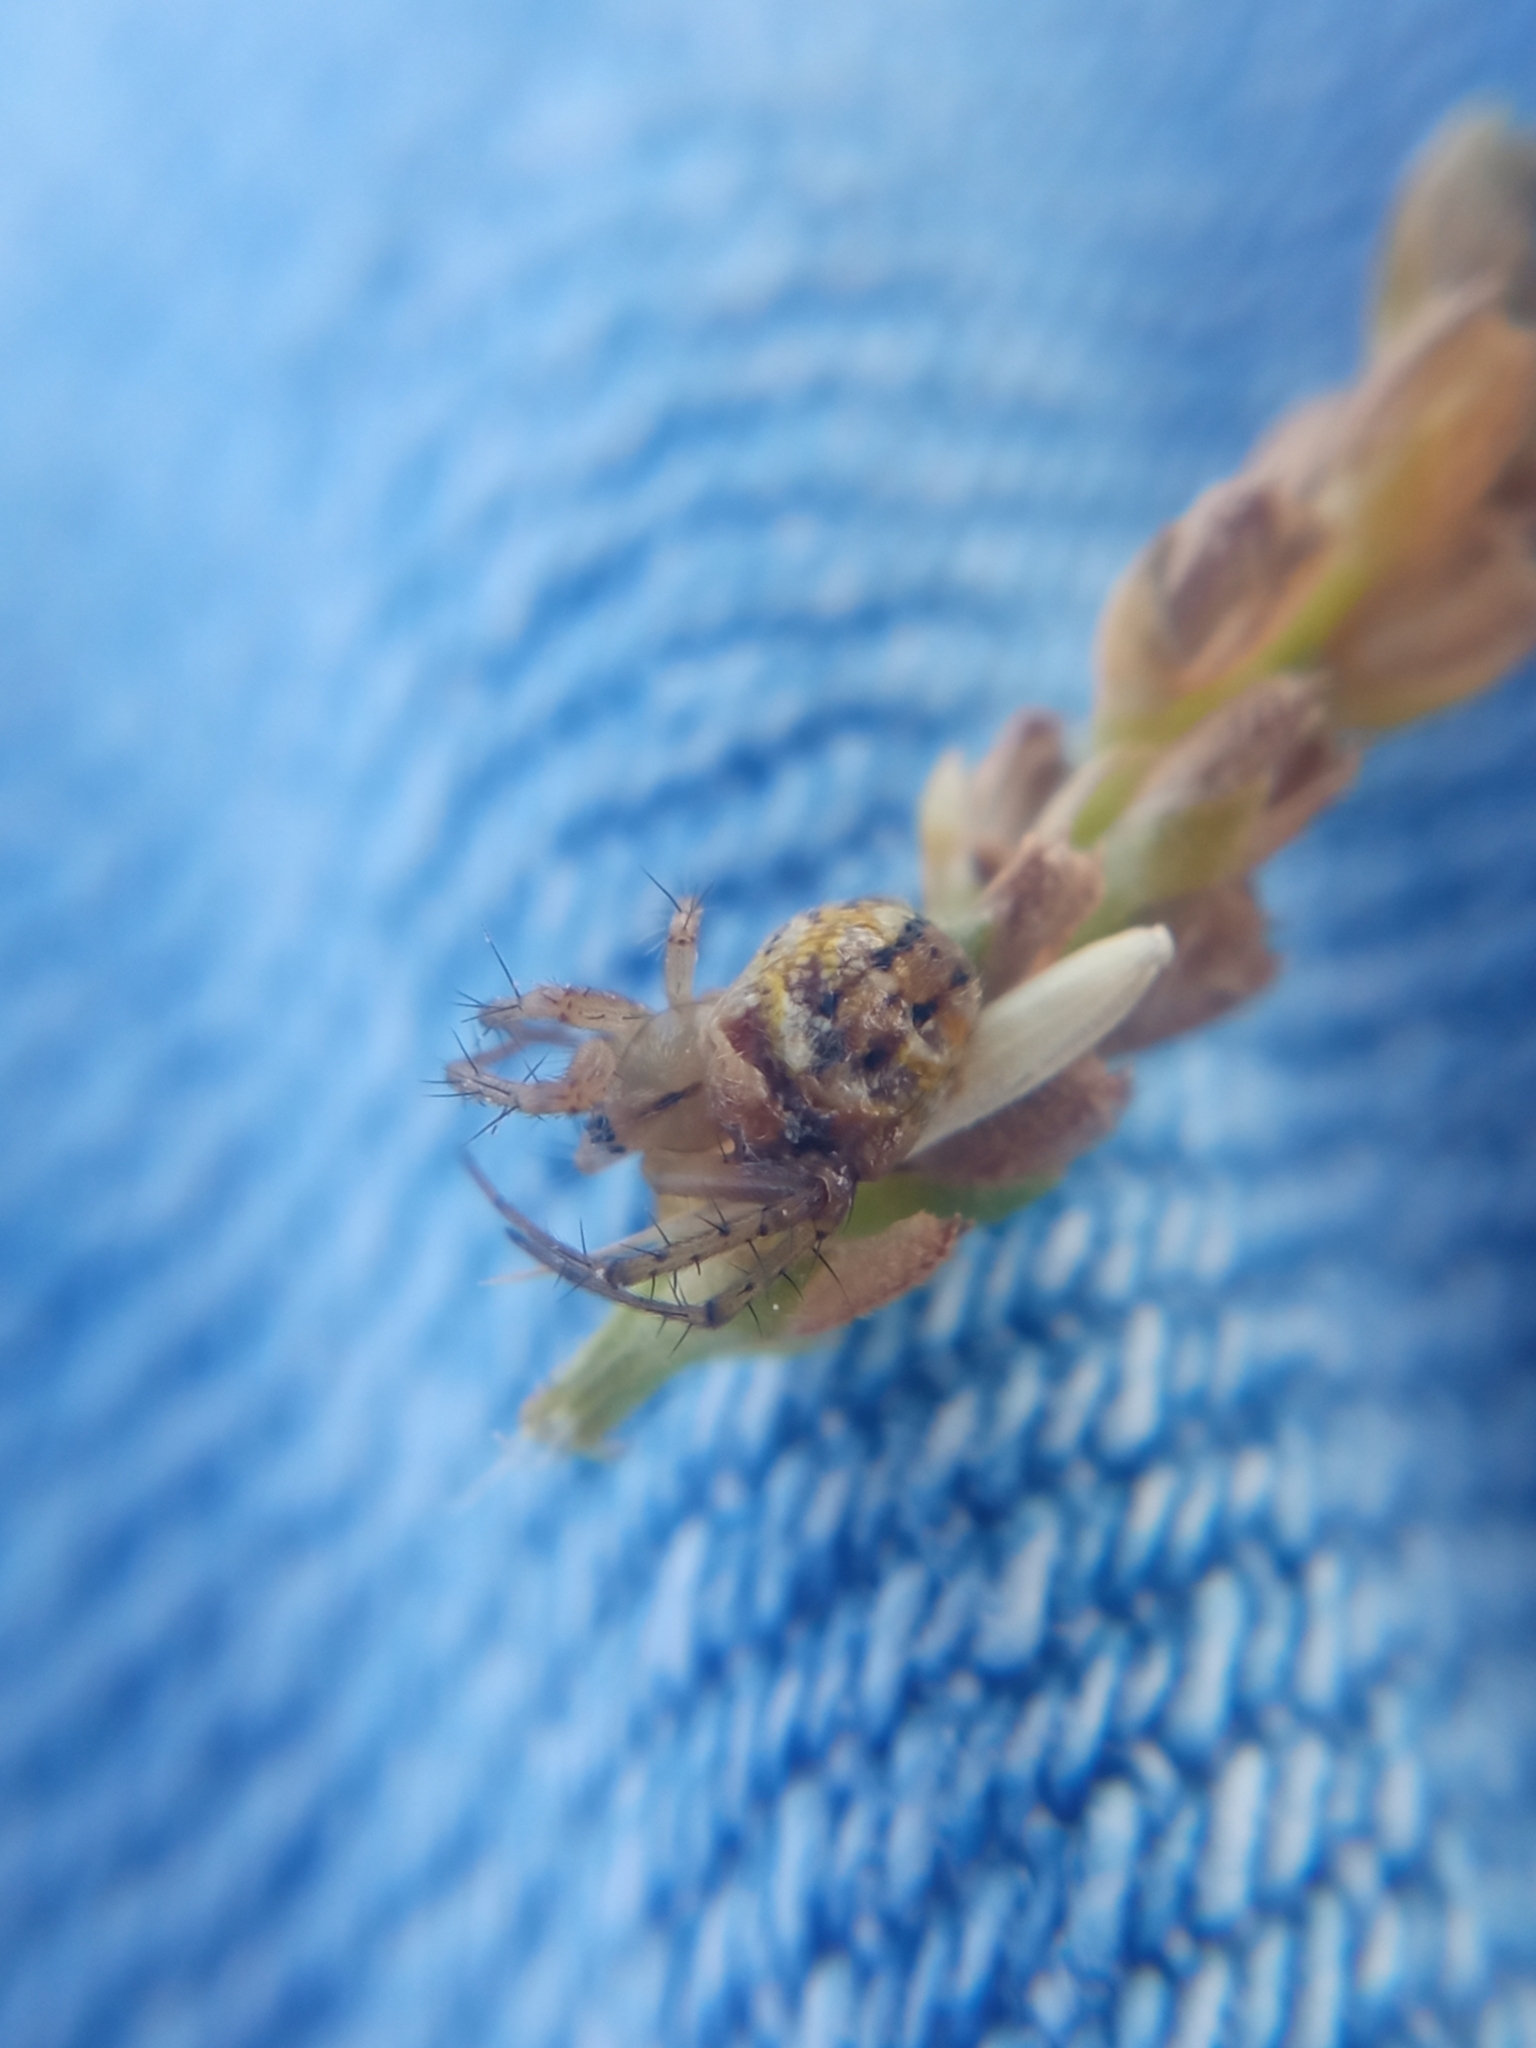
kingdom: Animalia
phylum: Arthropoda
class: Arachnida
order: Araneae
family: Araneidae
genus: Mangora
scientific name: Mangora acalypha
